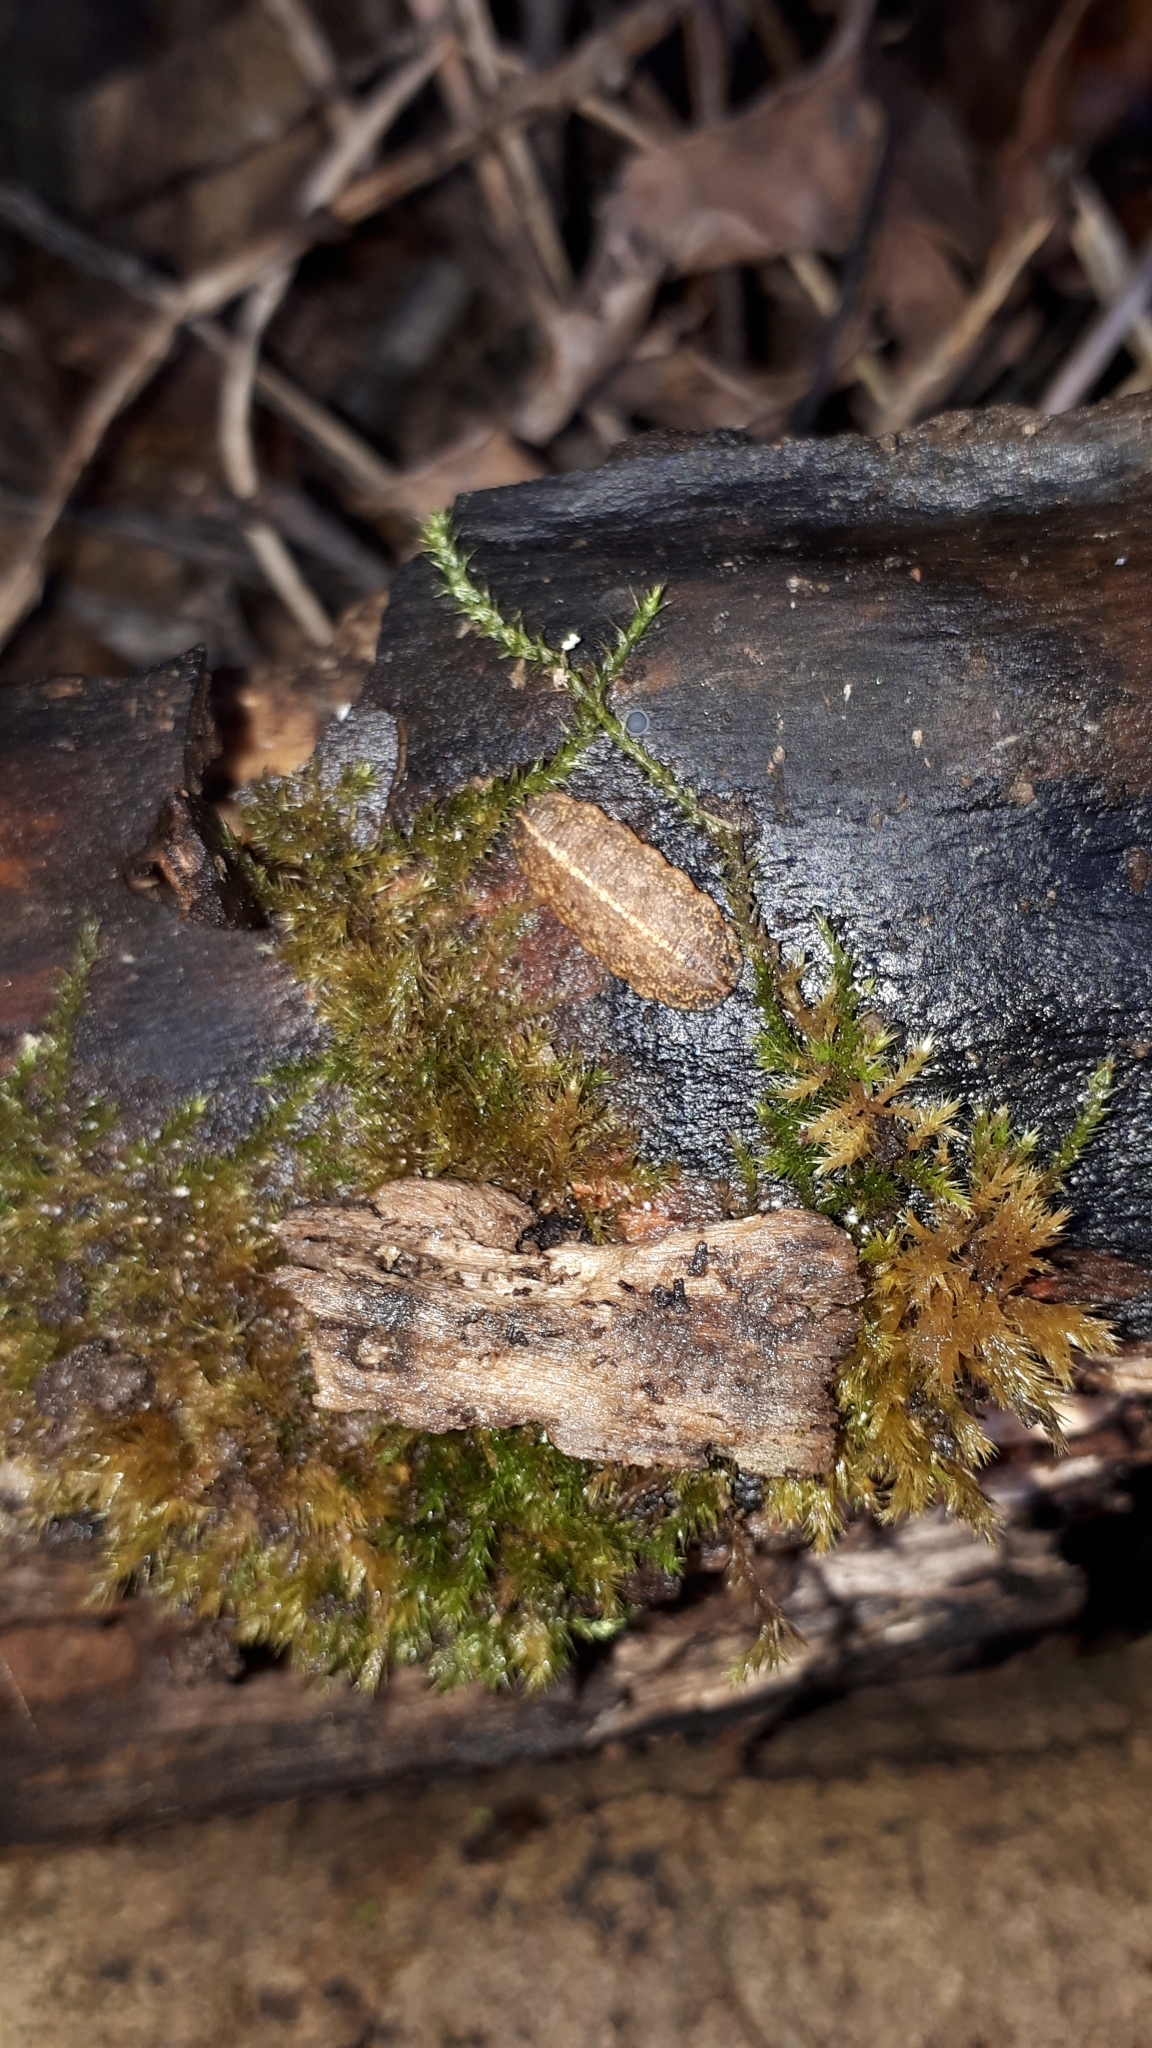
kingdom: Animalia
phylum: Arthropoda
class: Insecta
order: Diptera
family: Syrphidae
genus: Epistrophe
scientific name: Epistrophe
